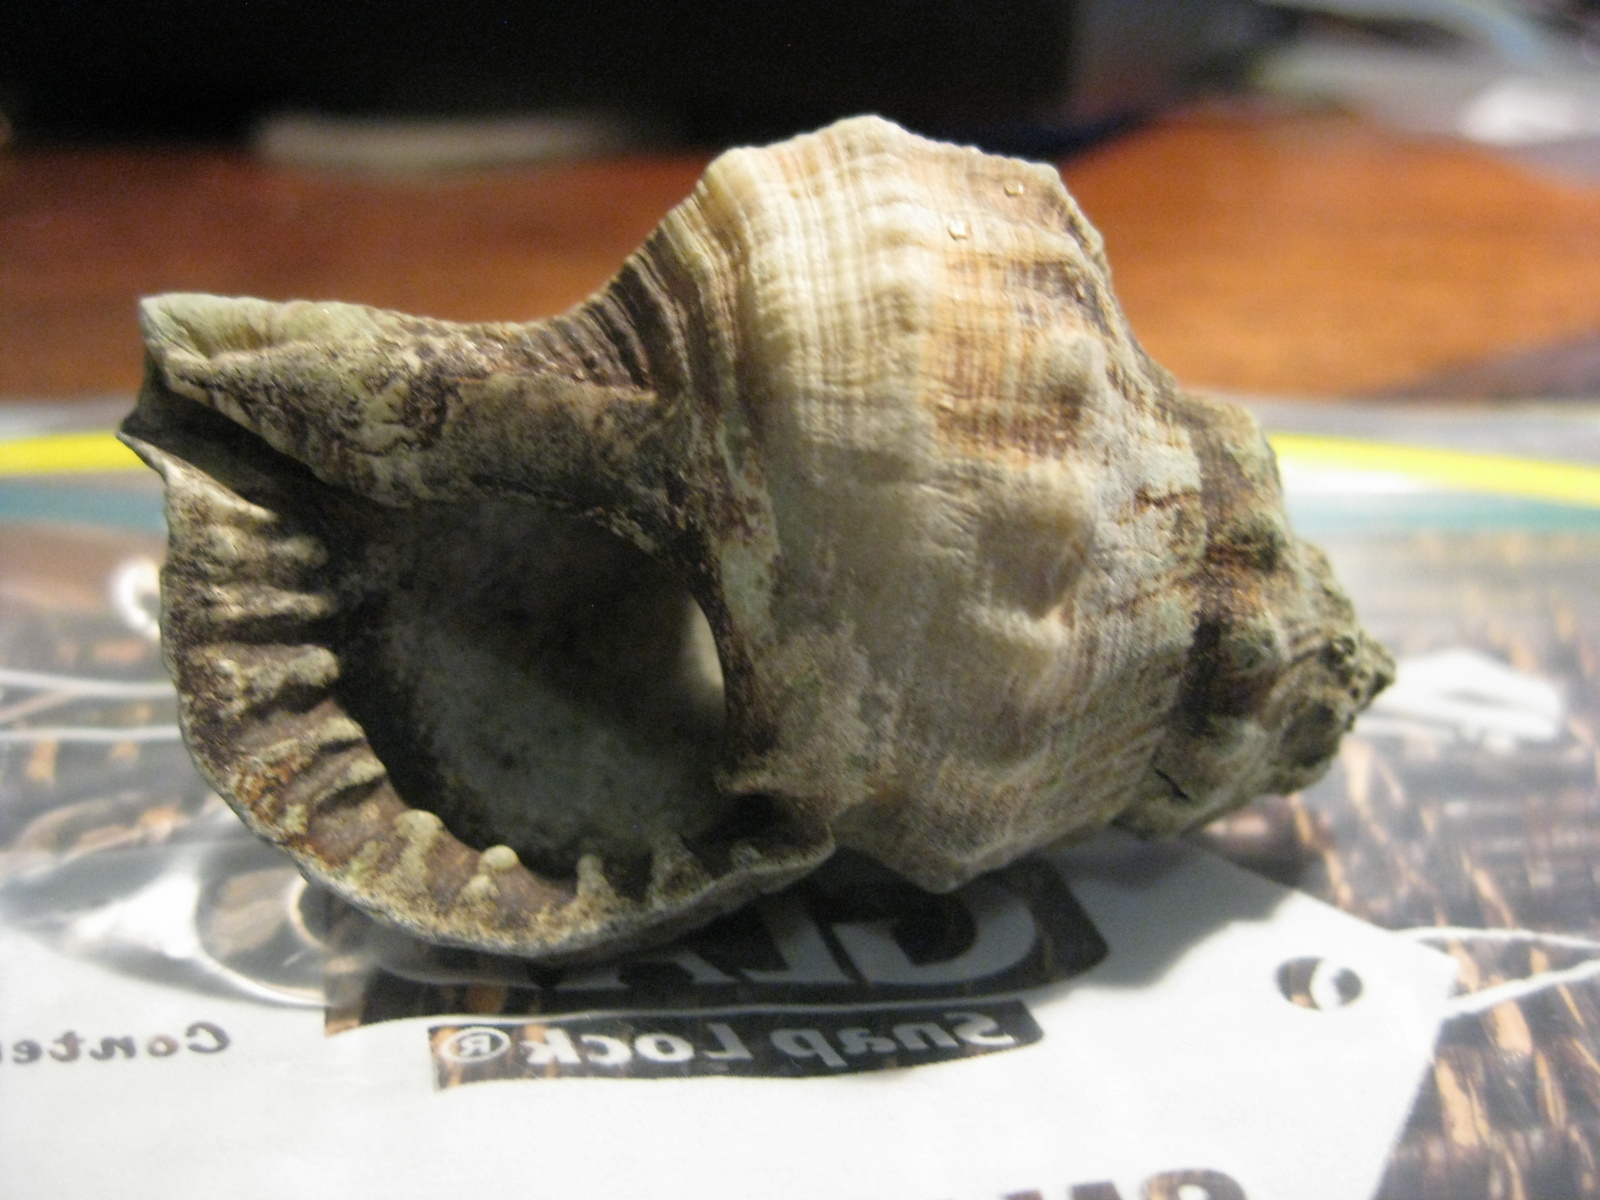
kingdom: Animalia
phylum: Mollusca
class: Gastropoda
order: Littorinimorpha
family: Ranellidae
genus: Ranella
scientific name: Ranella australasia
